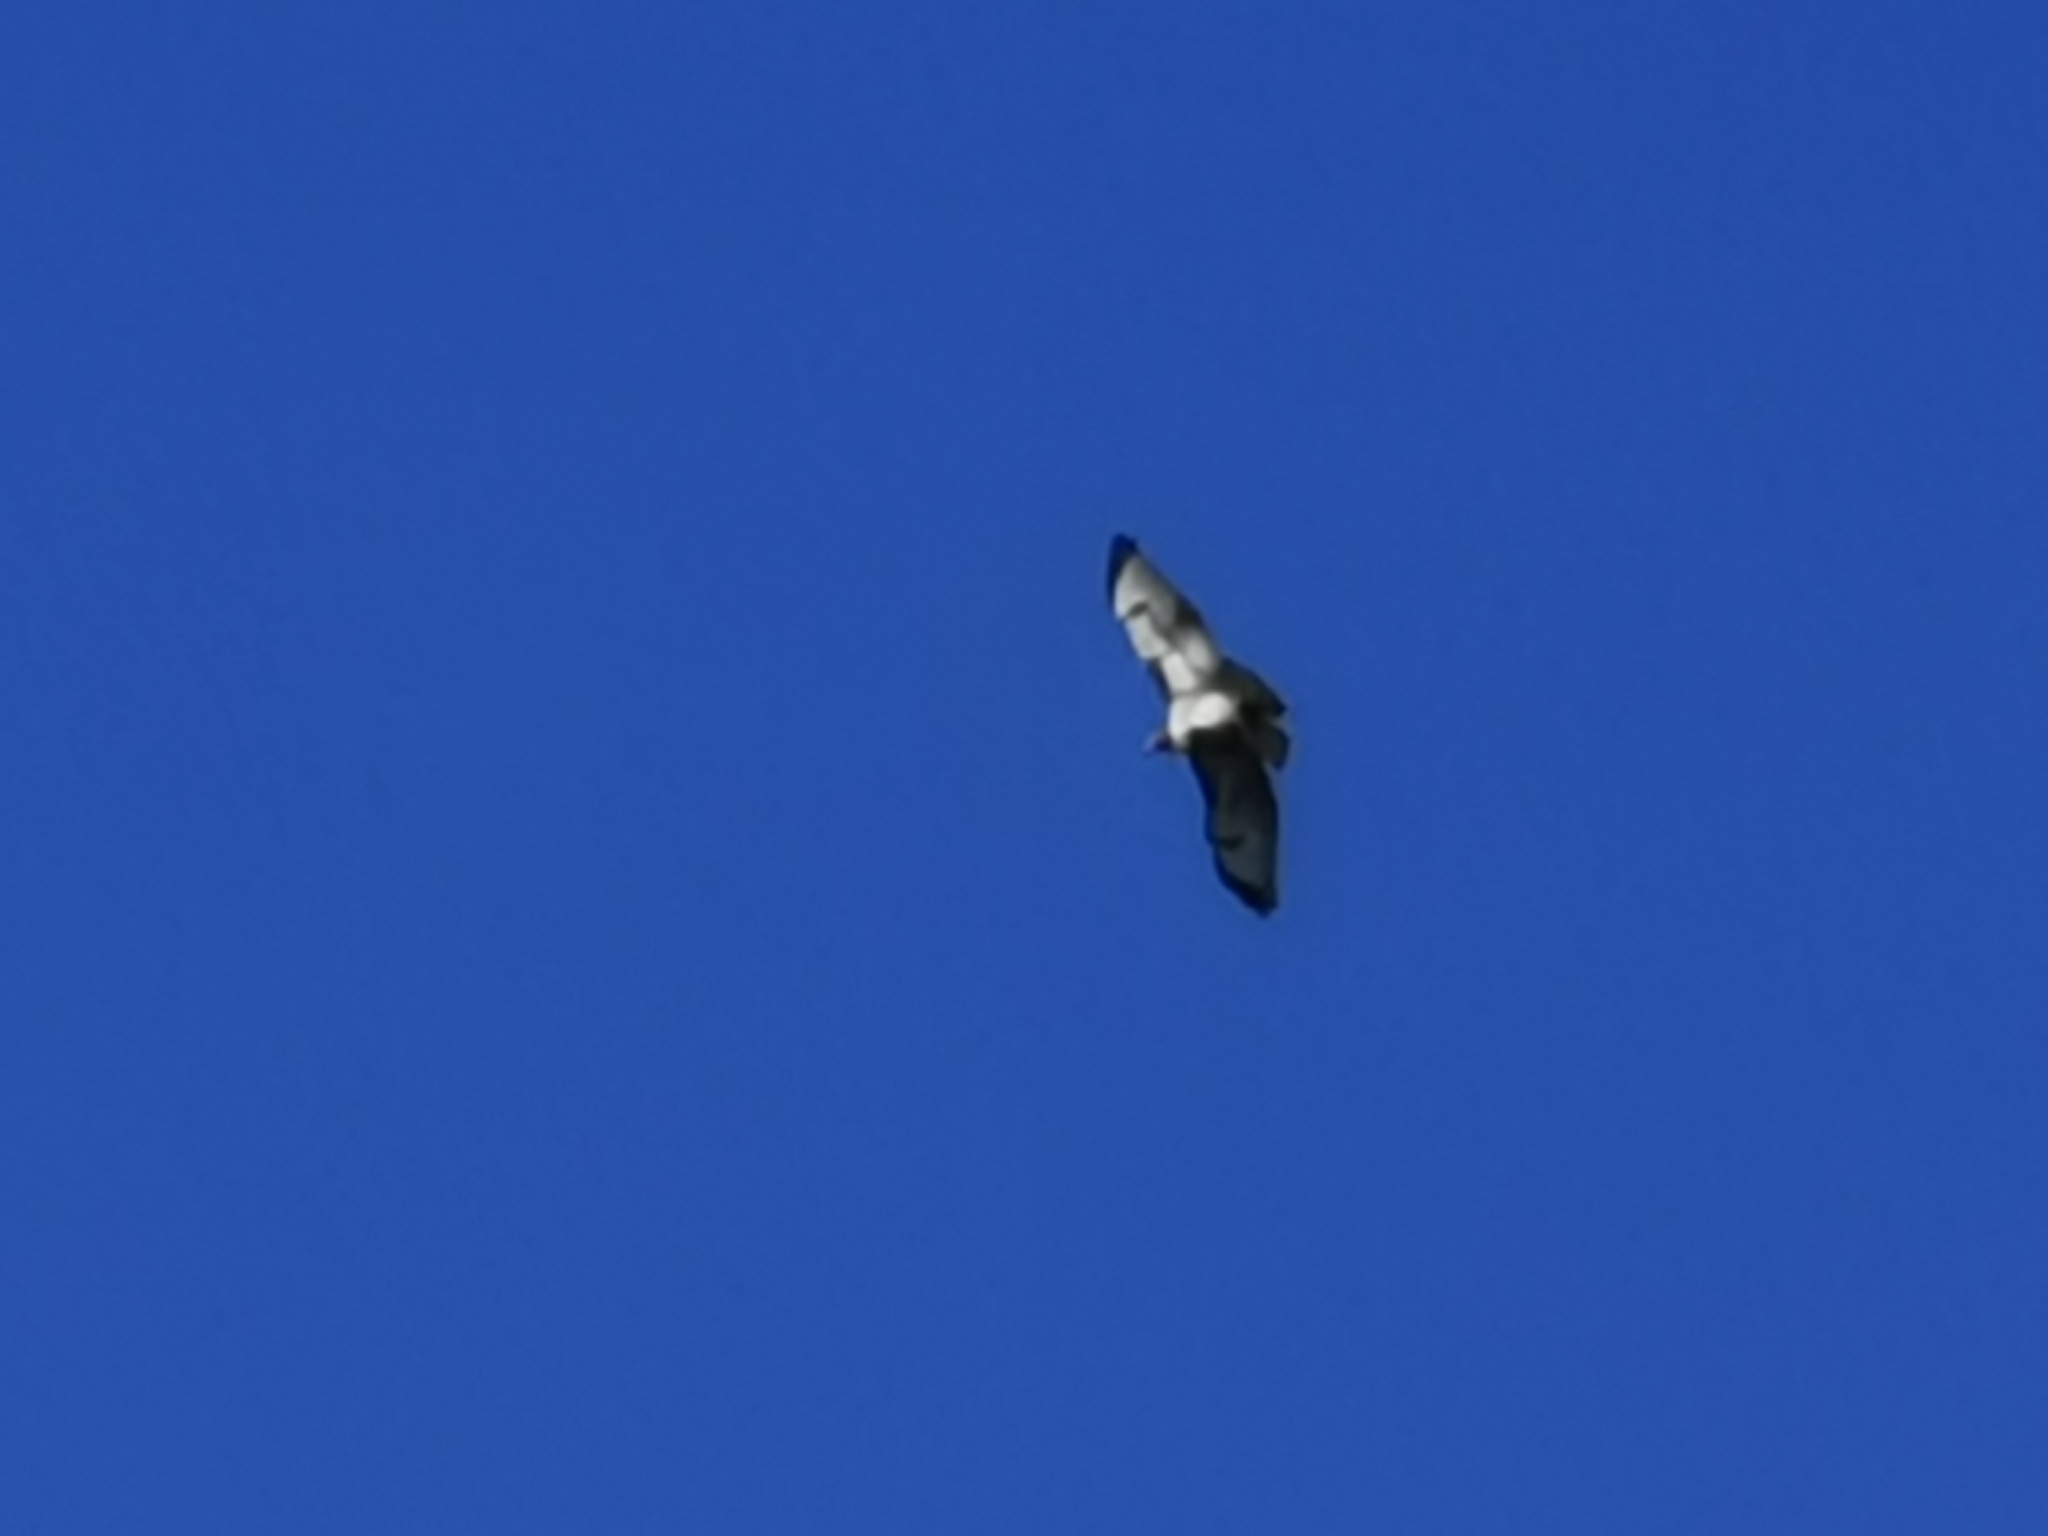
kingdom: Animalia
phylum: Chordata
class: Aves
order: Accipitriformes
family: Accipitridae
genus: Buteo
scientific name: Buteo jamaicensis
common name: Red-tailed hawk
